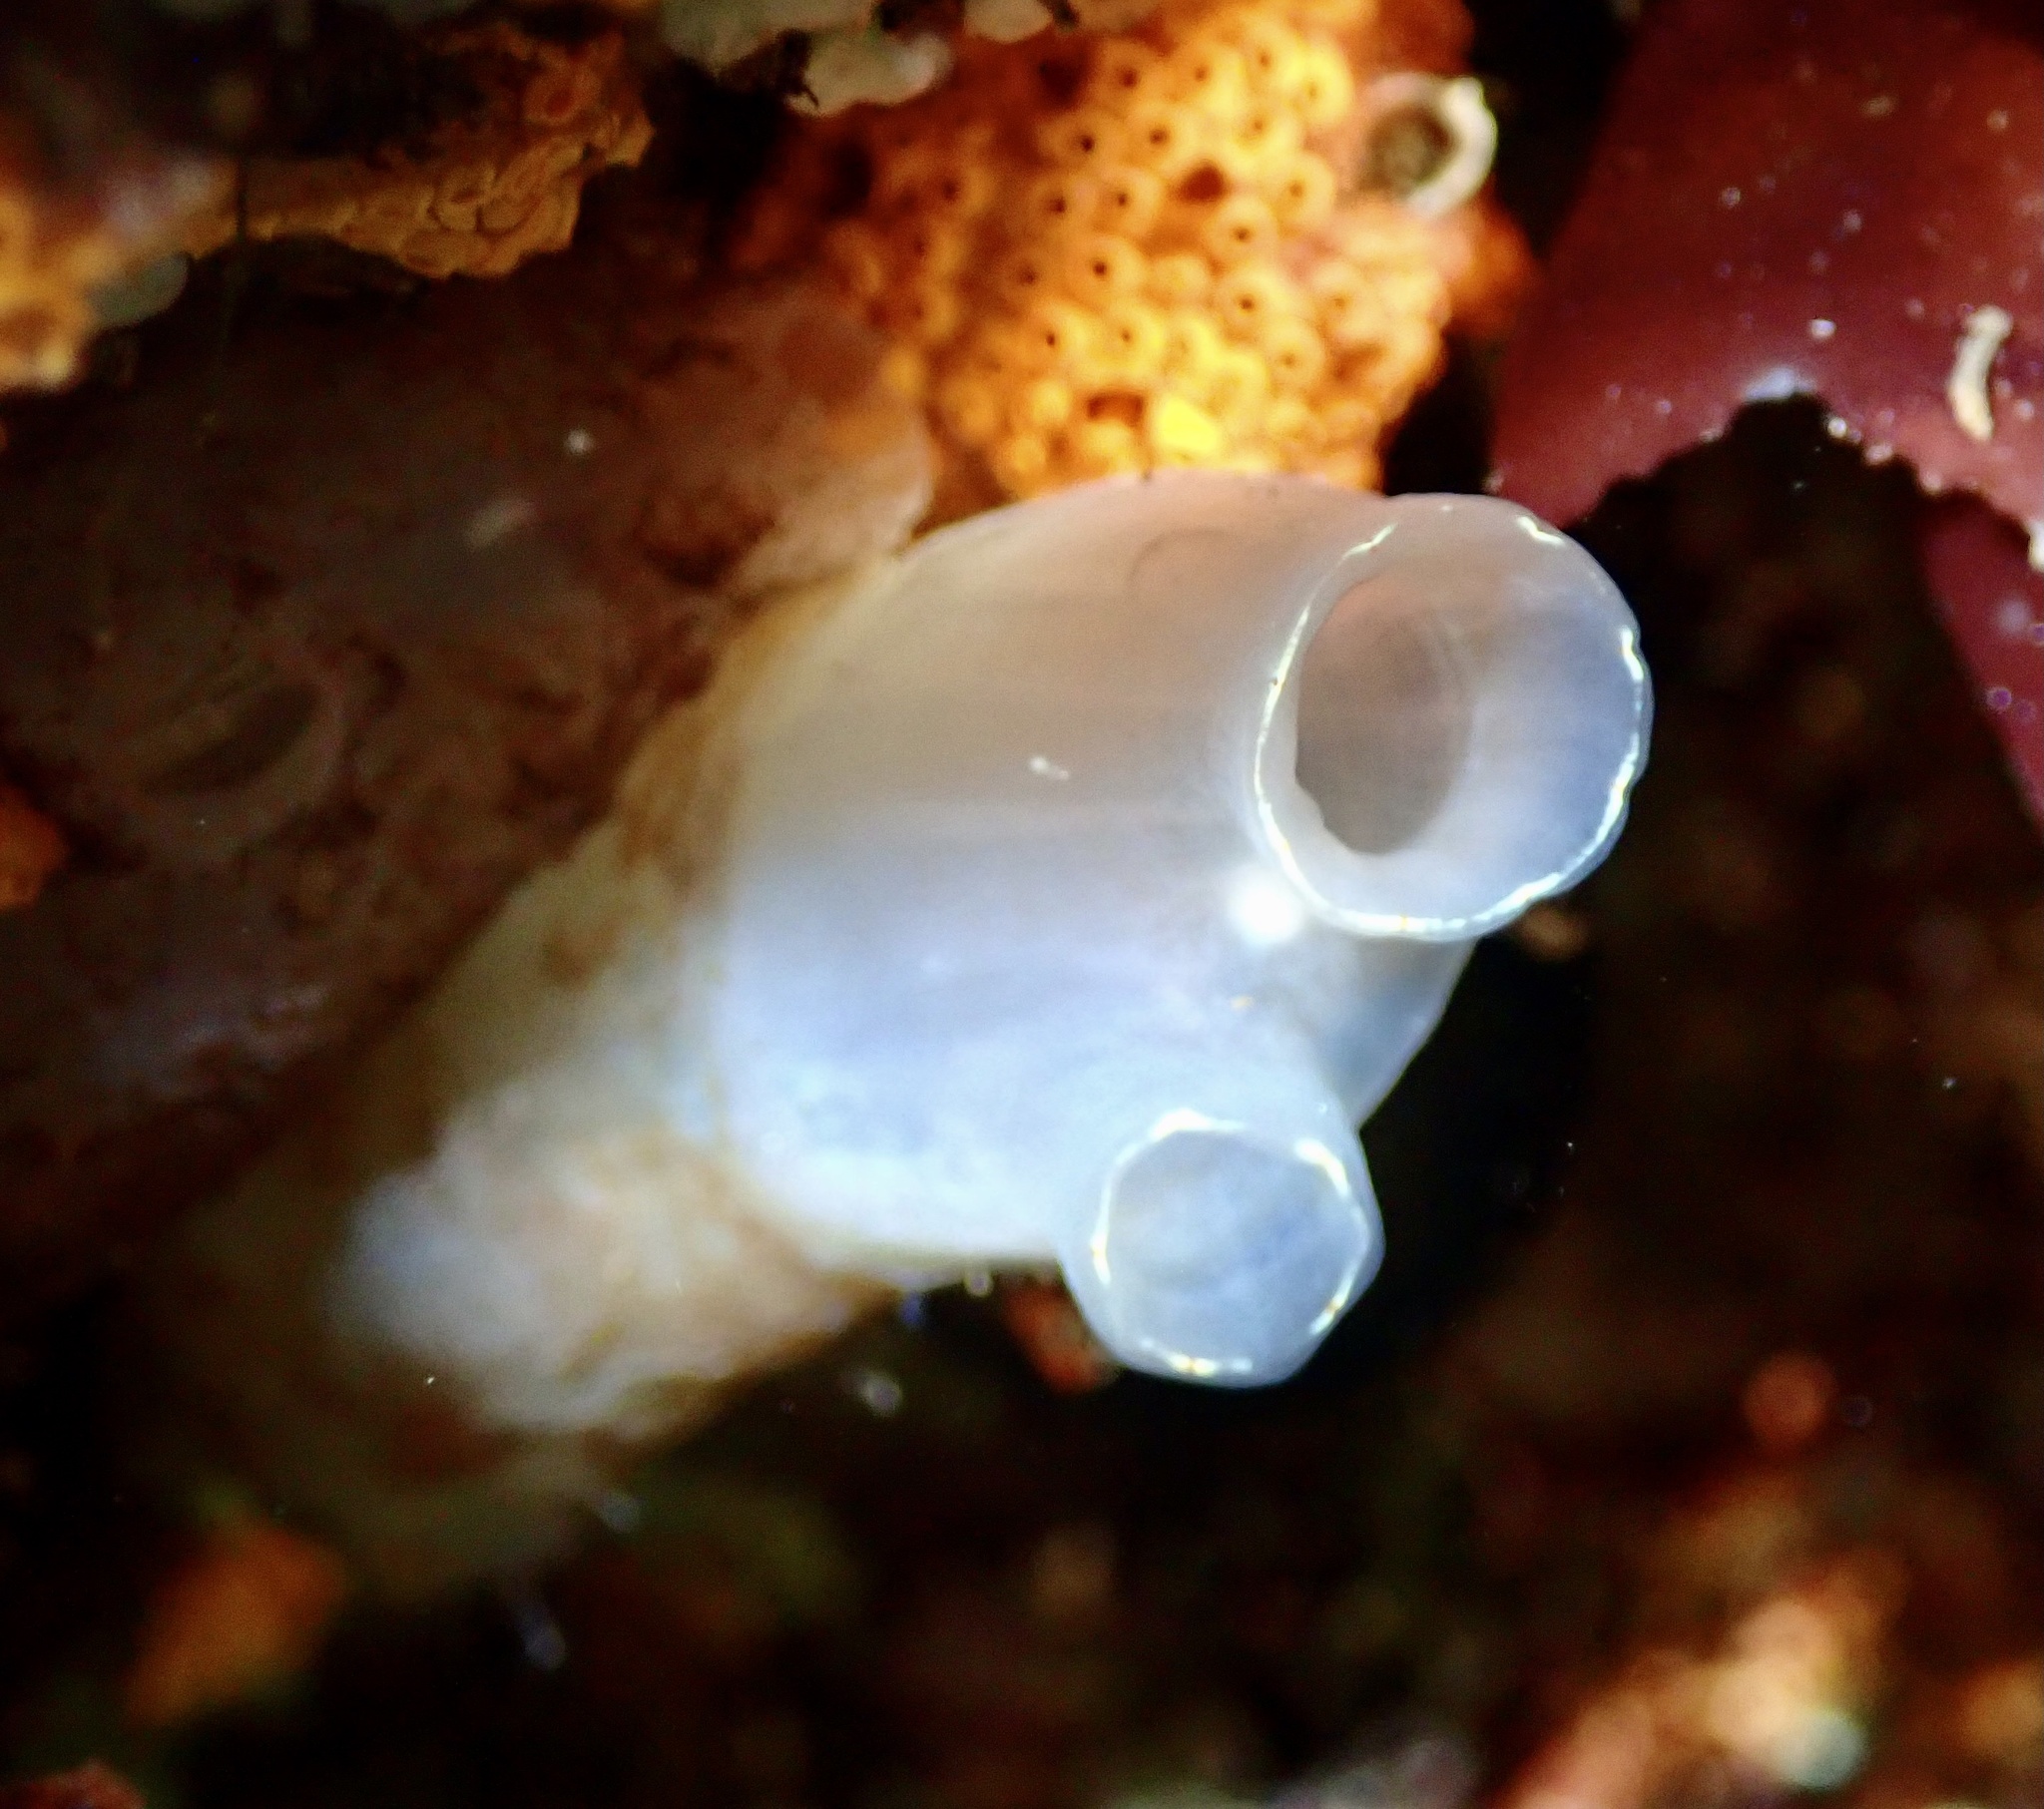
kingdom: Animalia
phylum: Chordata
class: Ascidiacea
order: Phlebobranchia
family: Cionidae
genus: Ciona
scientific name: Ciona intestinalis
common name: Vase tunicate
